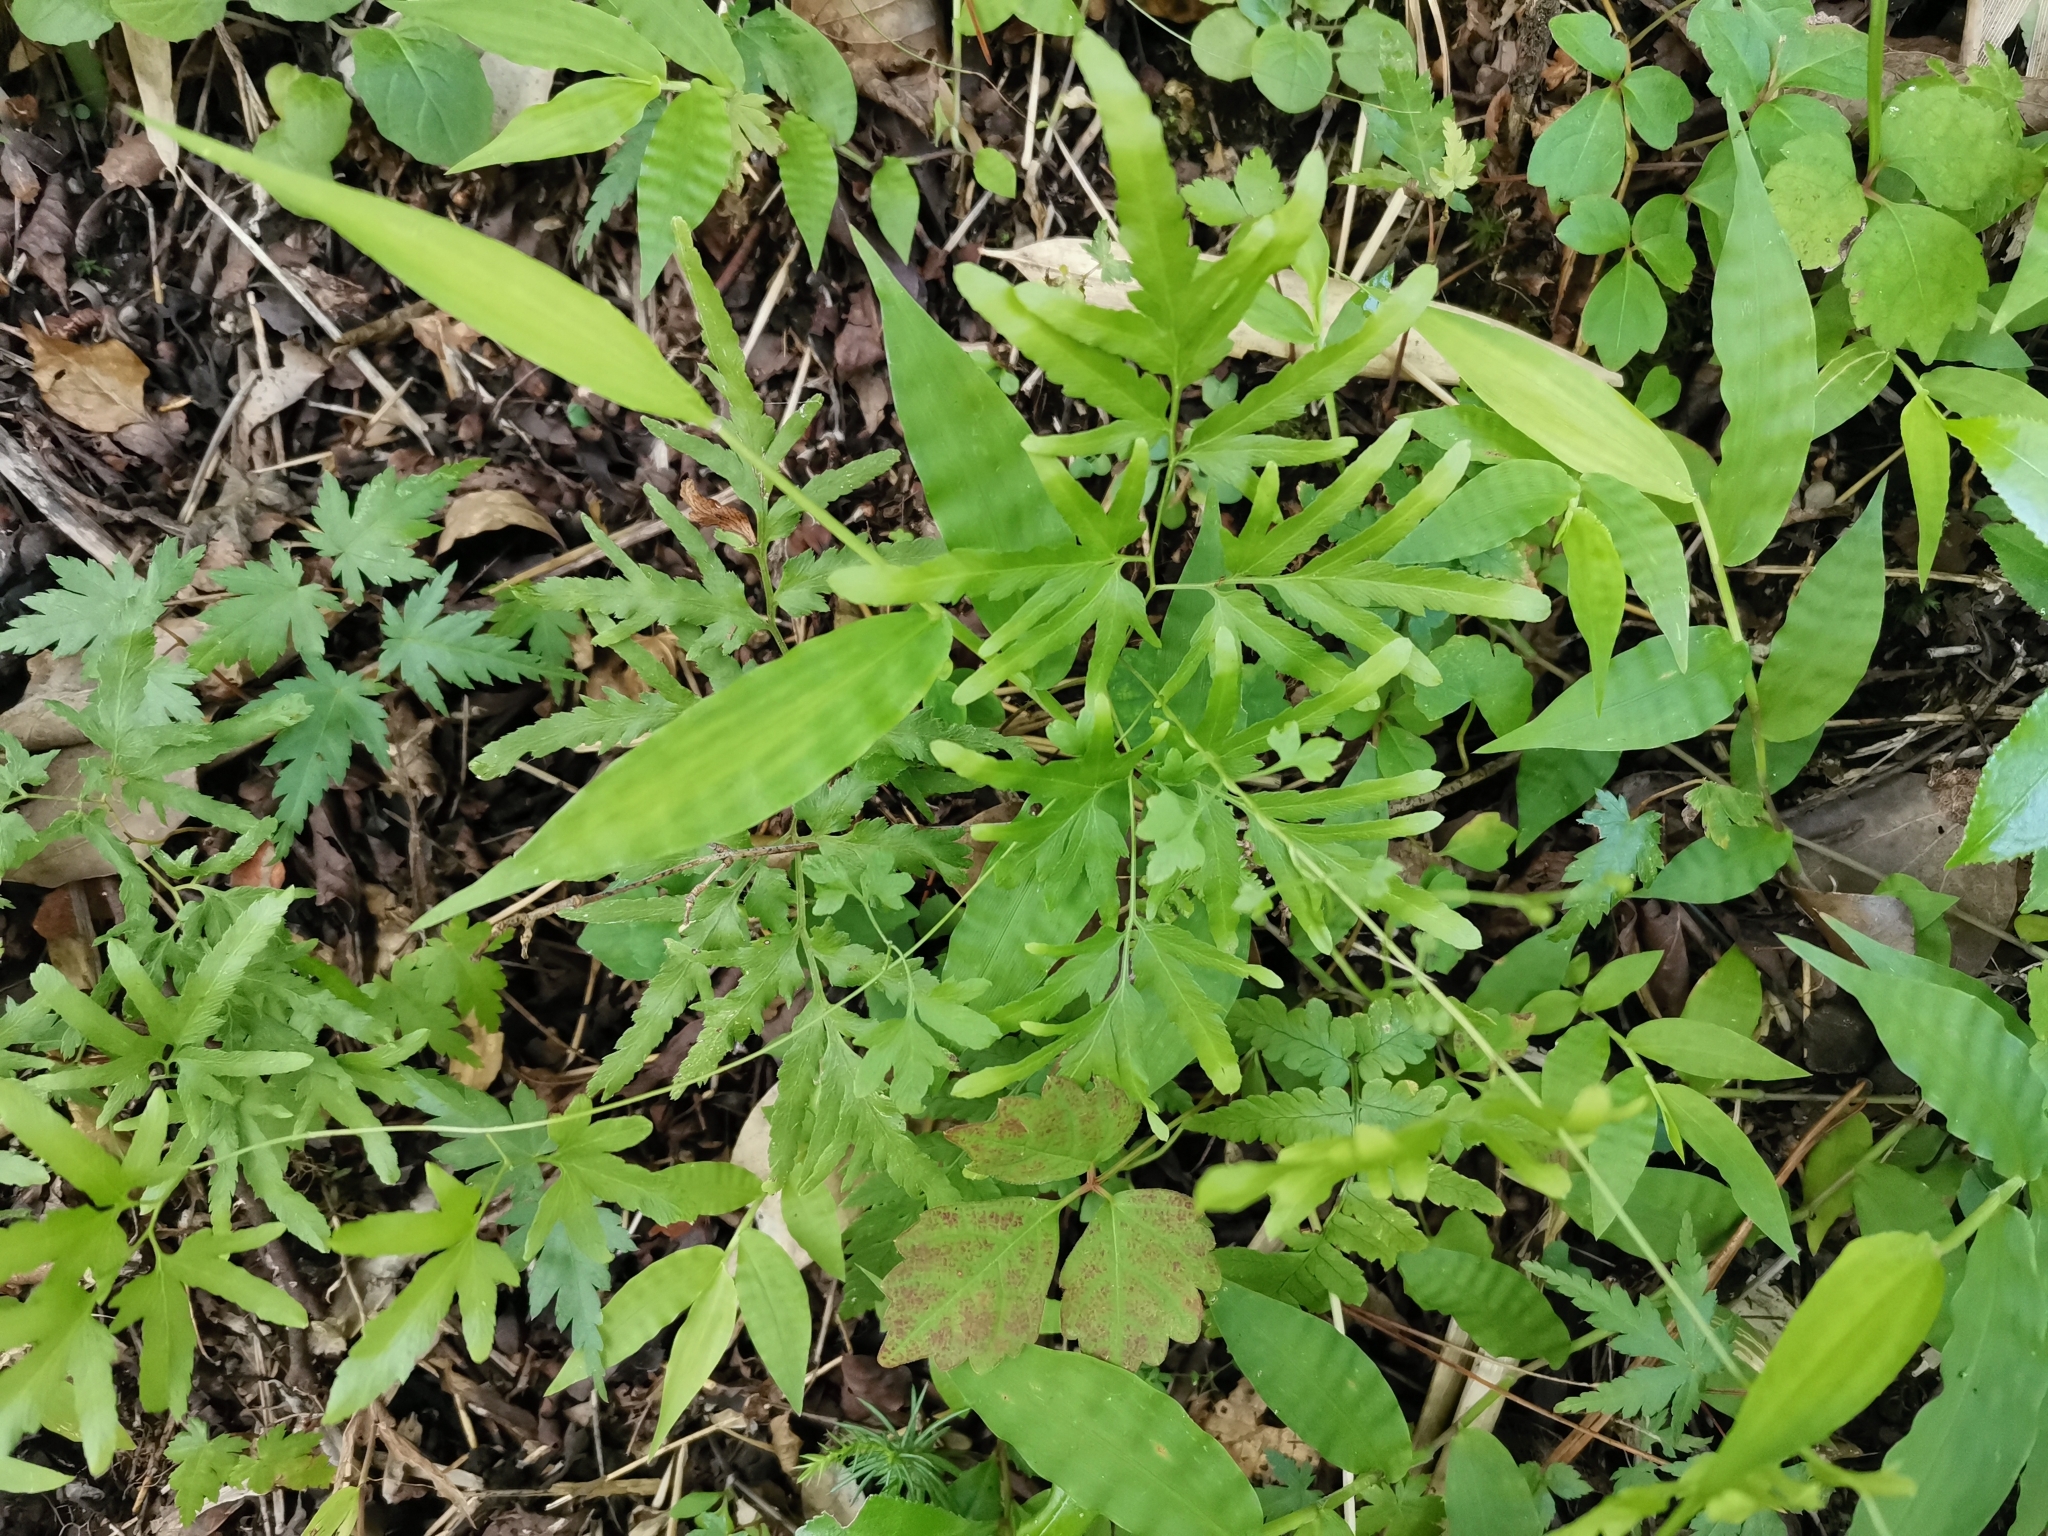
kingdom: Plantae
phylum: Tracheophyta
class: Polypodiopsida
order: Schizaeales
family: Lygodiaceae
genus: Lygodium
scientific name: Lygodium japonicum
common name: Japanese climbing fern
